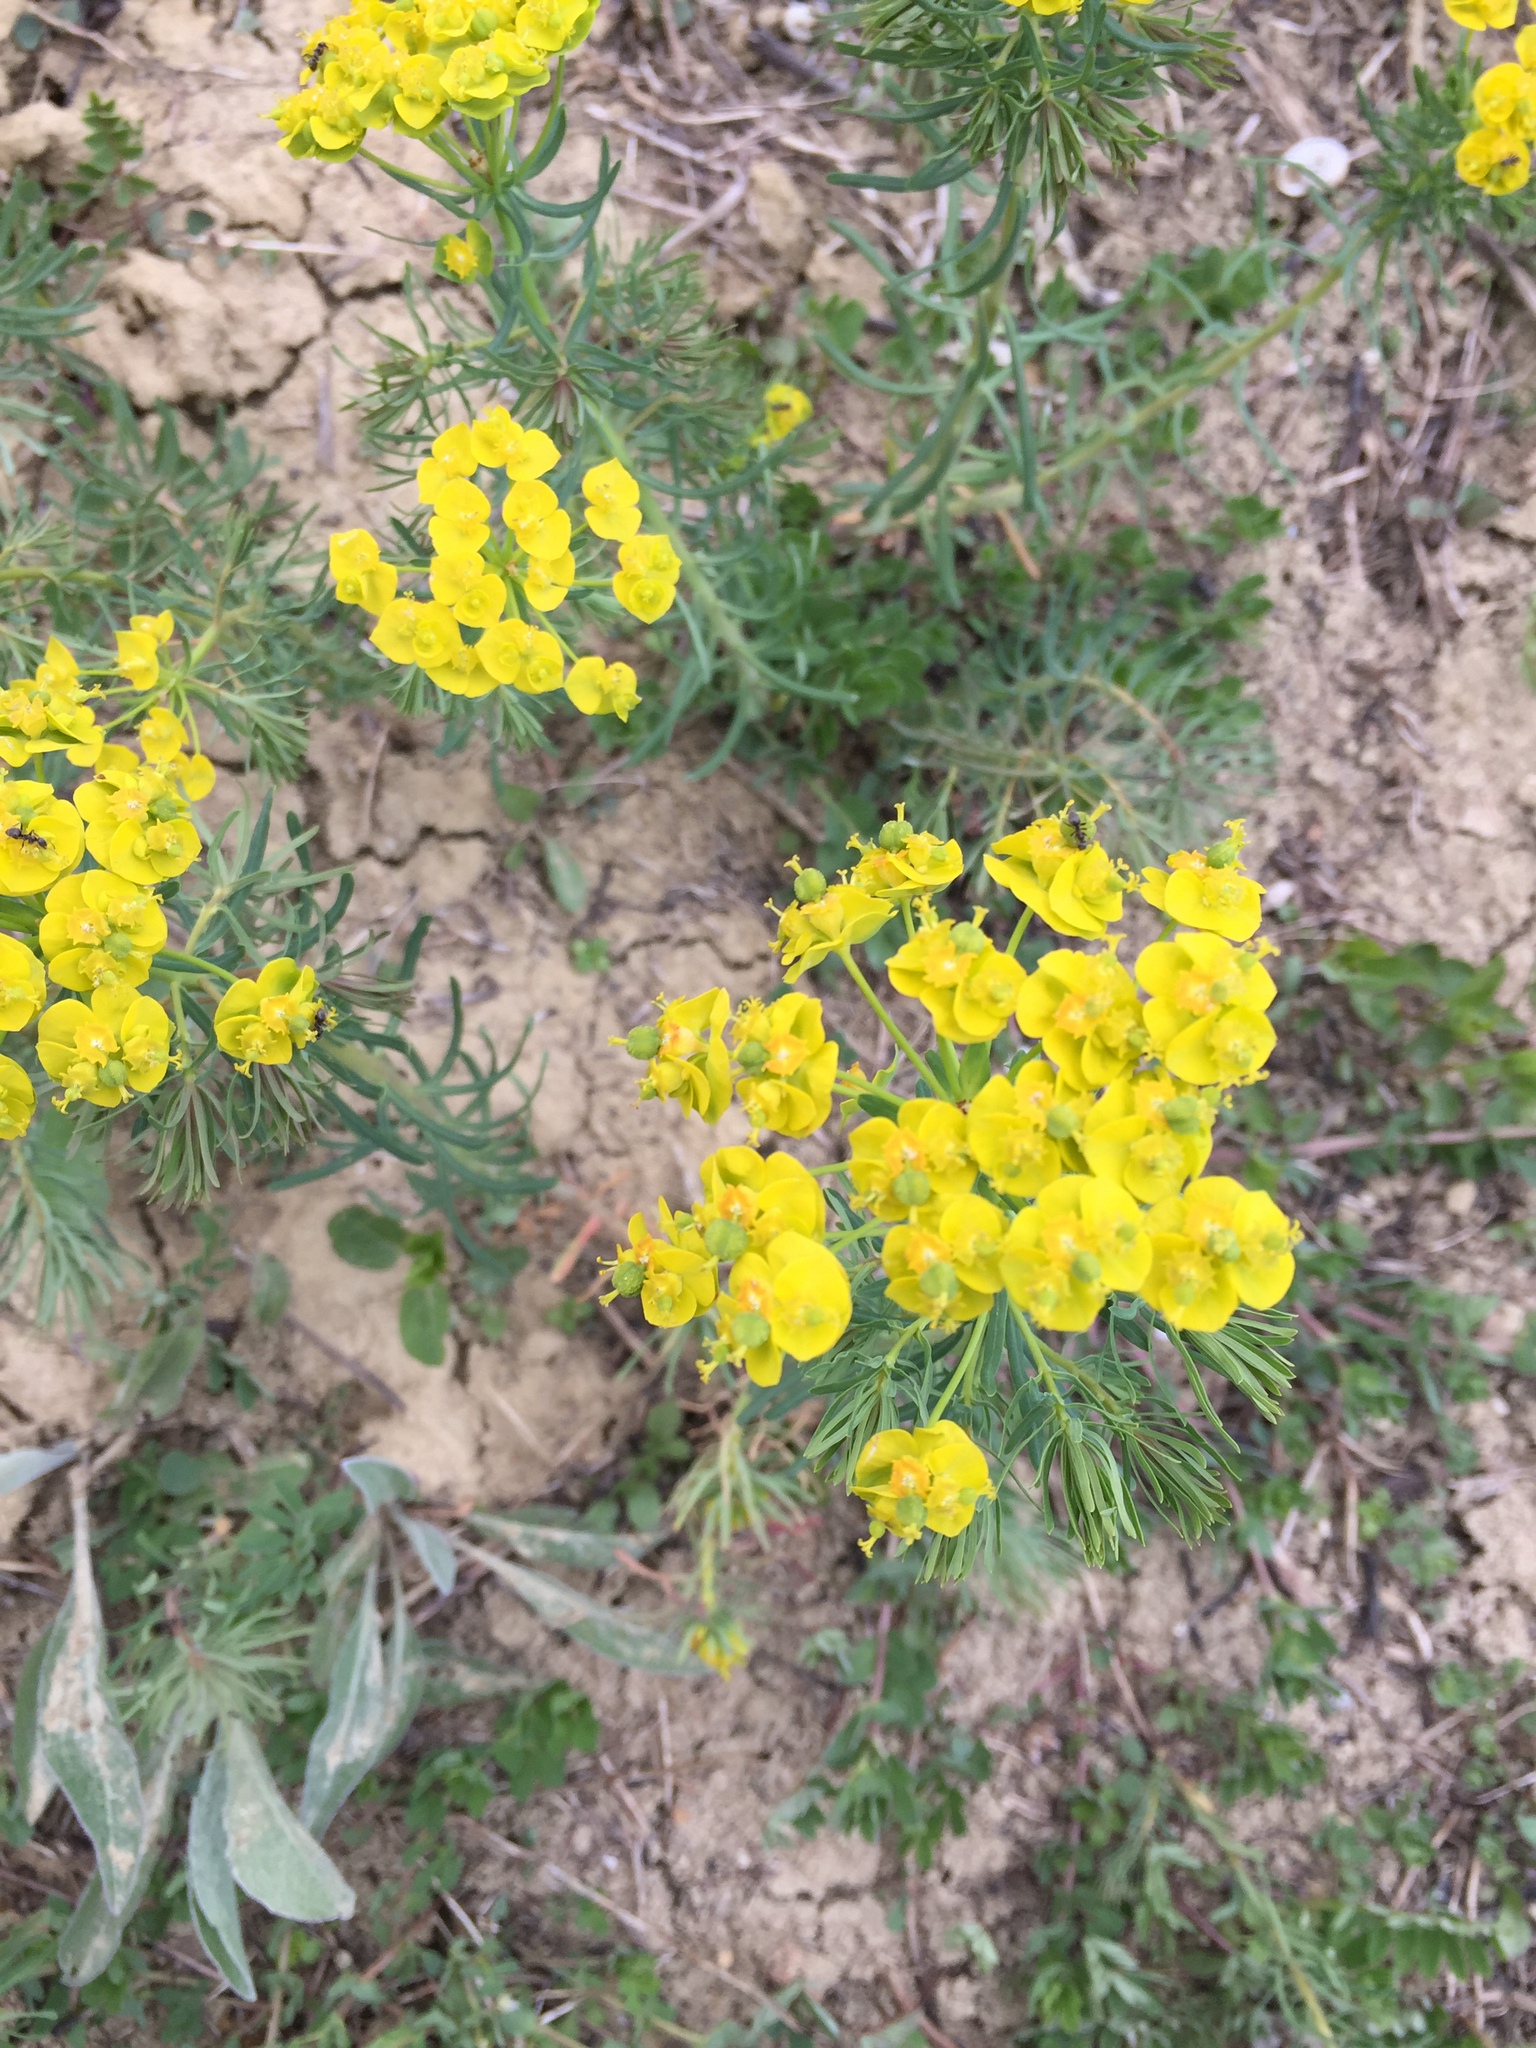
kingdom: Plantae
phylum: Tracheophyta
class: Magnoliopsida
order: Malpighiales
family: Euphorbiaceae
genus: Euphorbia
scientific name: Euphorbia cyparissias
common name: Cypress spurge
